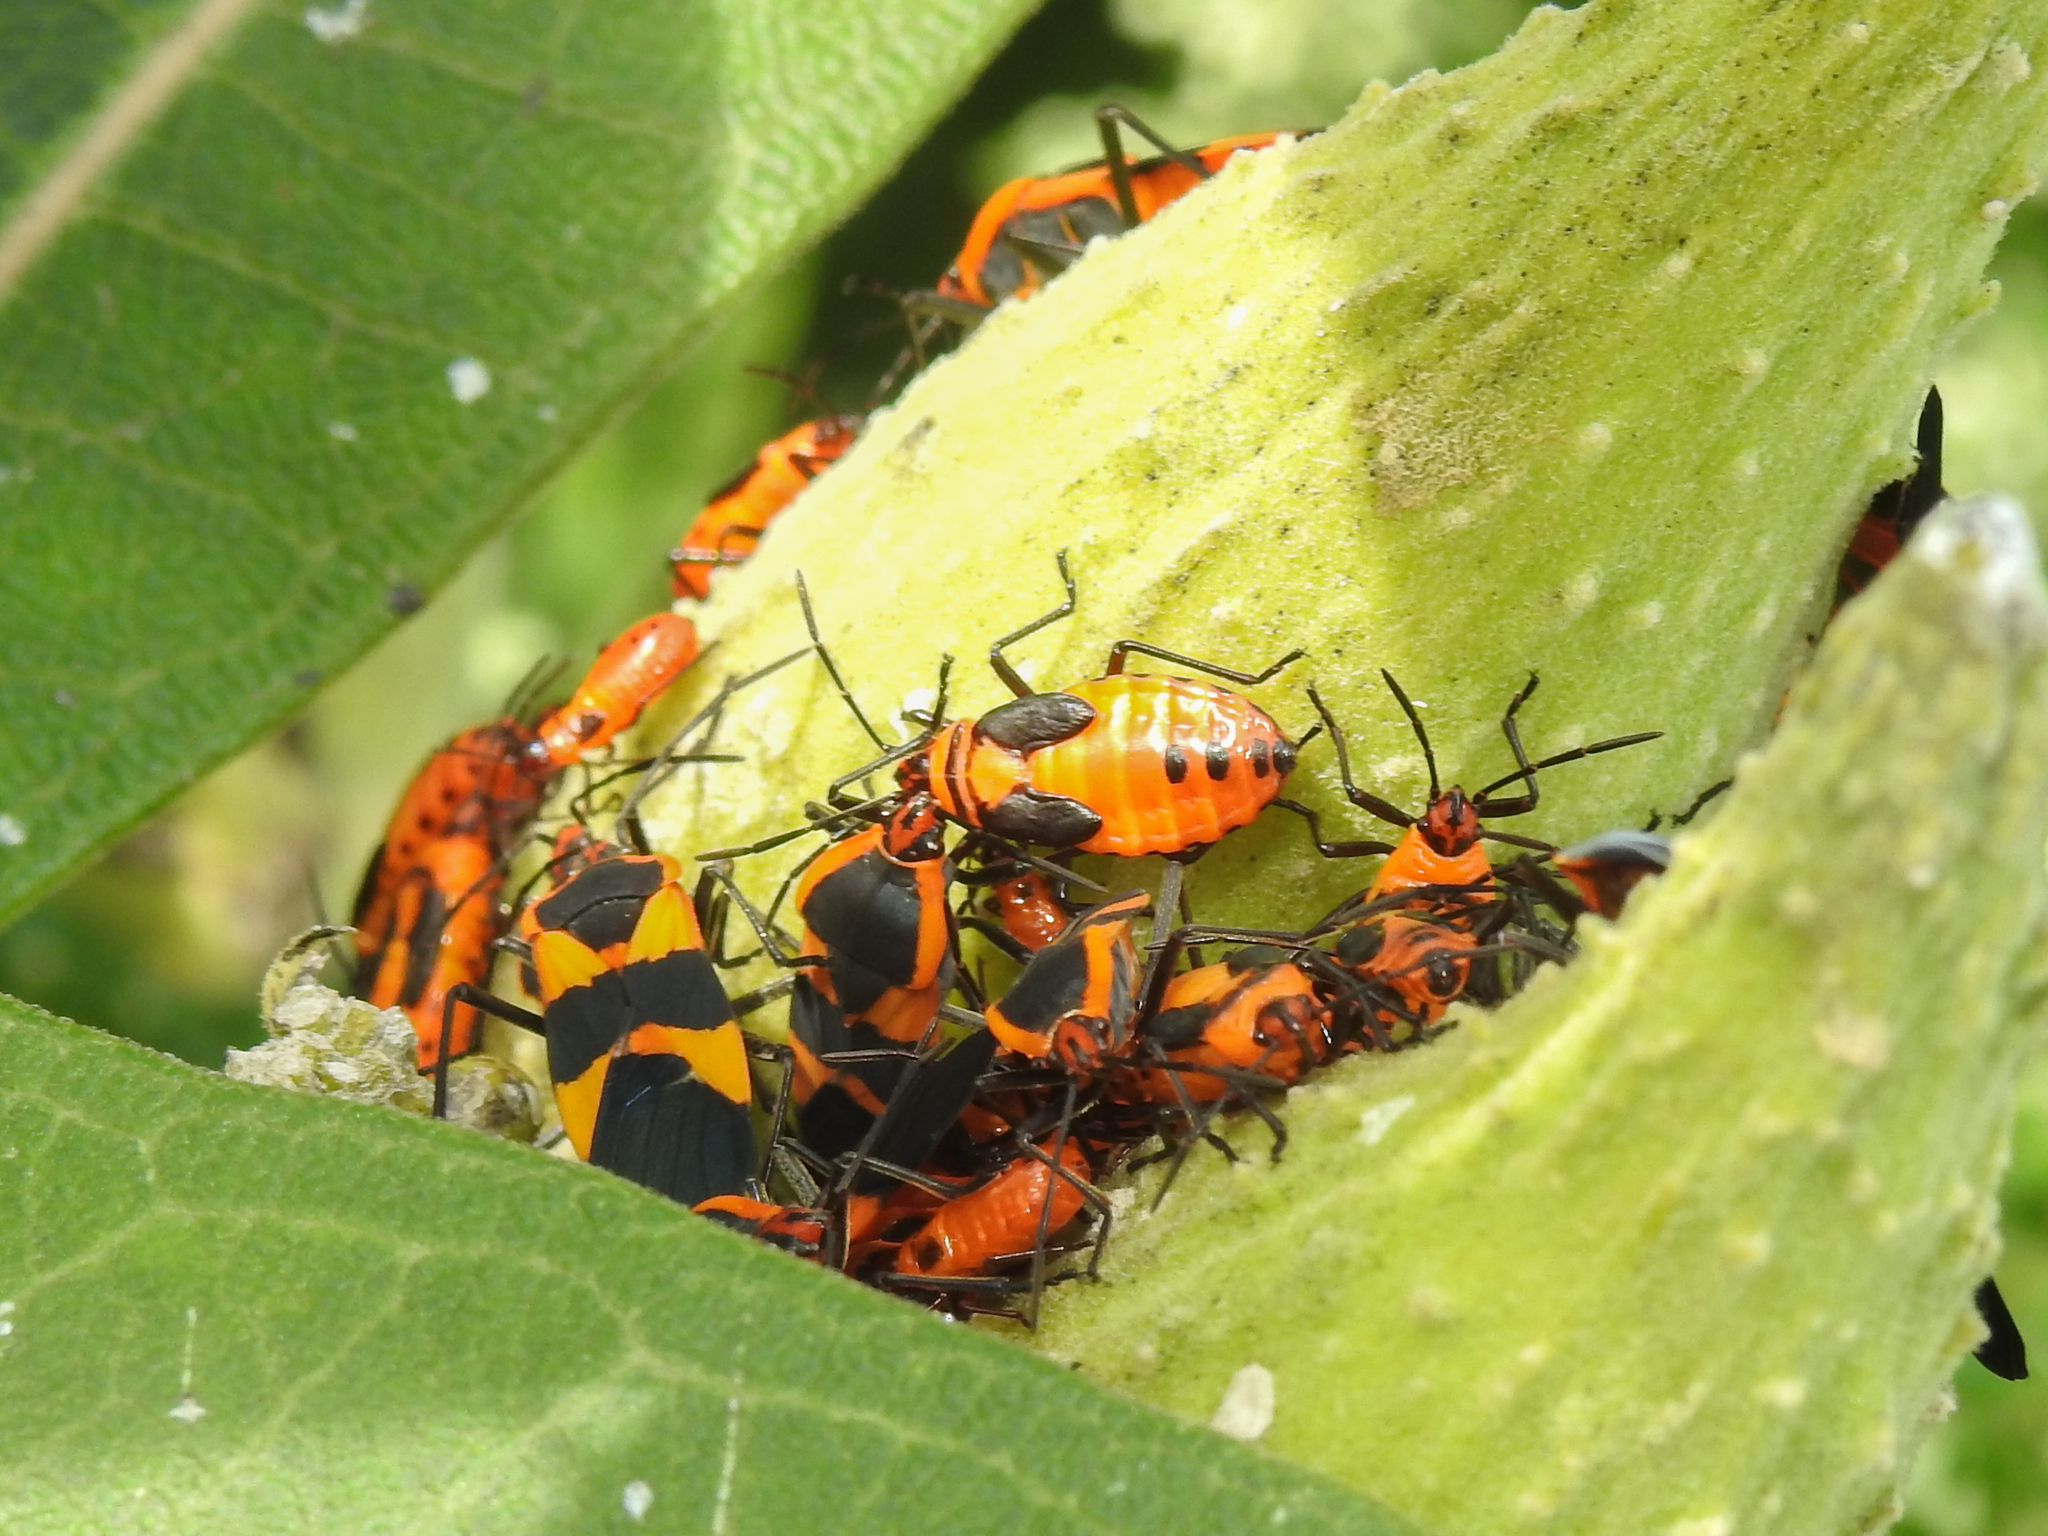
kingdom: Animalia
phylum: Arthropoda
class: Insecta
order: Hemiptera
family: Lygaeidae
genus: Oncopeltus
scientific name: Oncopeltus fasciatus
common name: Large milkweed bug
